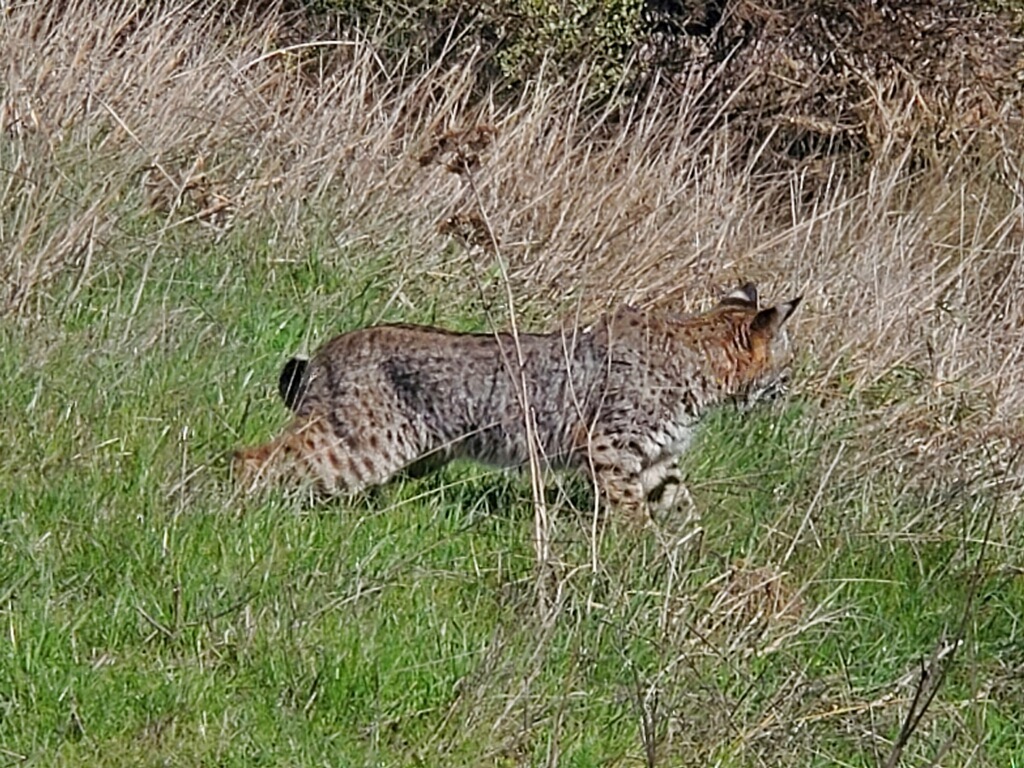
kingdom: Animalia
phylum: Chordata
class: Mammalia
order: Carnivora
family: Felidae
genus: Lynx
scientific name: Lynx rufus
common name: Bobcat
